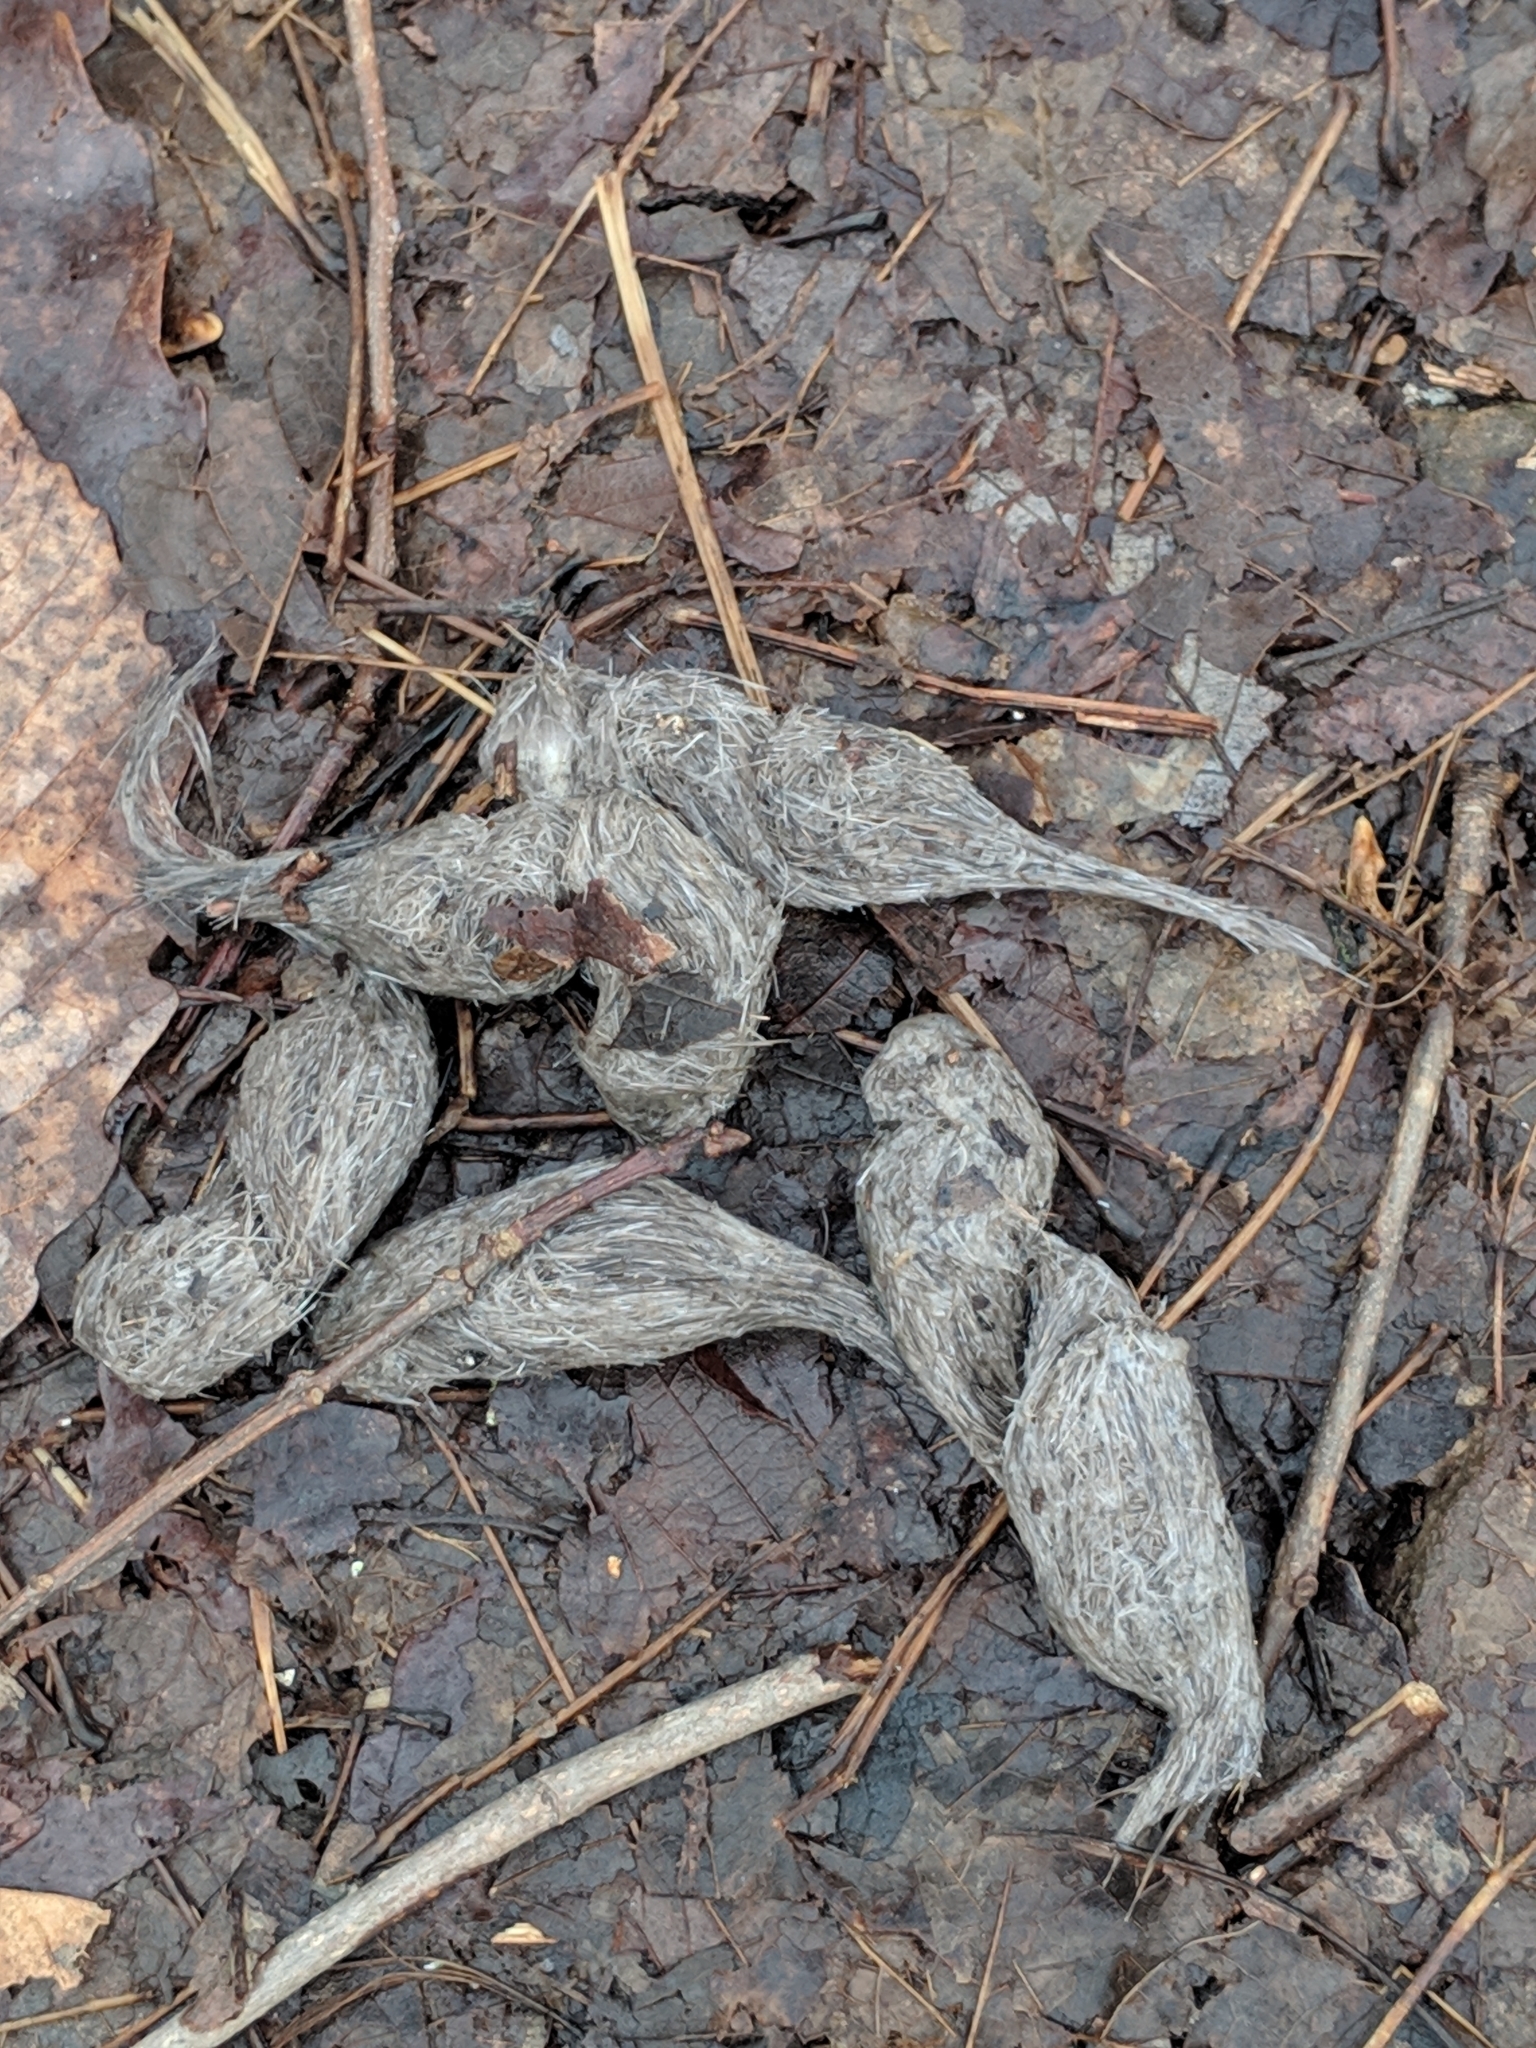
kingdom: Animalia
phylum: Chordata
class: Mammalia
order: Carnivora
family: Canidae
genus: Canis
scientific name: Canis latrans
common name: Coyote
